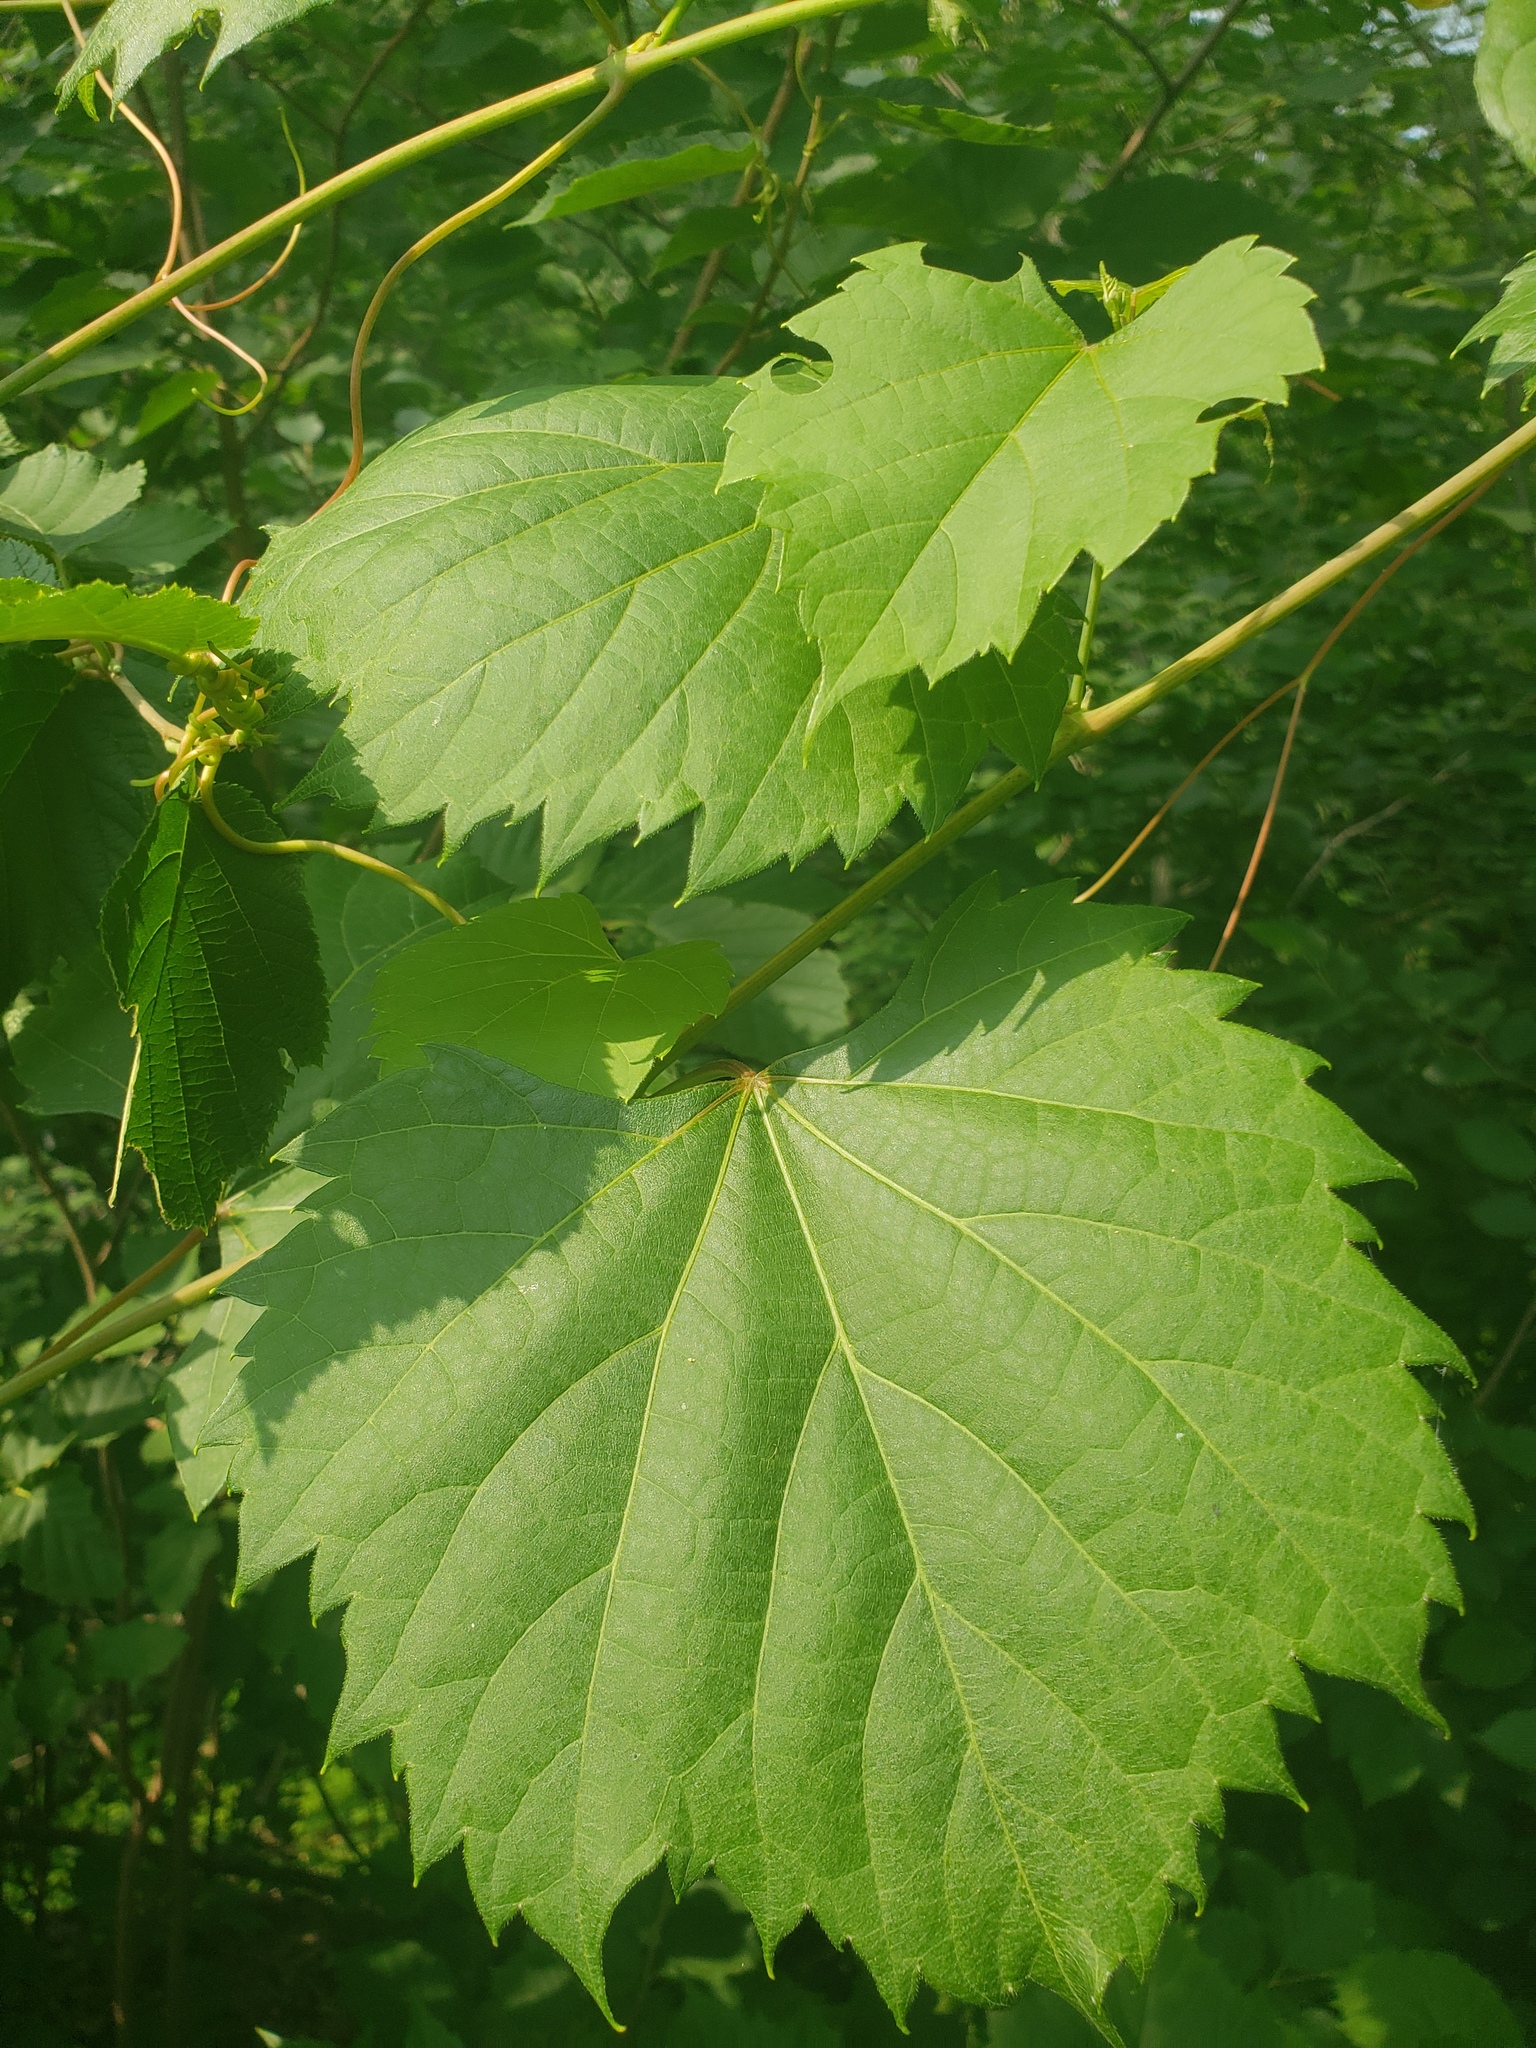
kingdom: Plantae
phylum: Tracheophyta
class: Magnoliopsida
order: Vitales
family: Vitaceae
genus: Vitis
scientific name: Vitis riparia
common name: Frost grape
